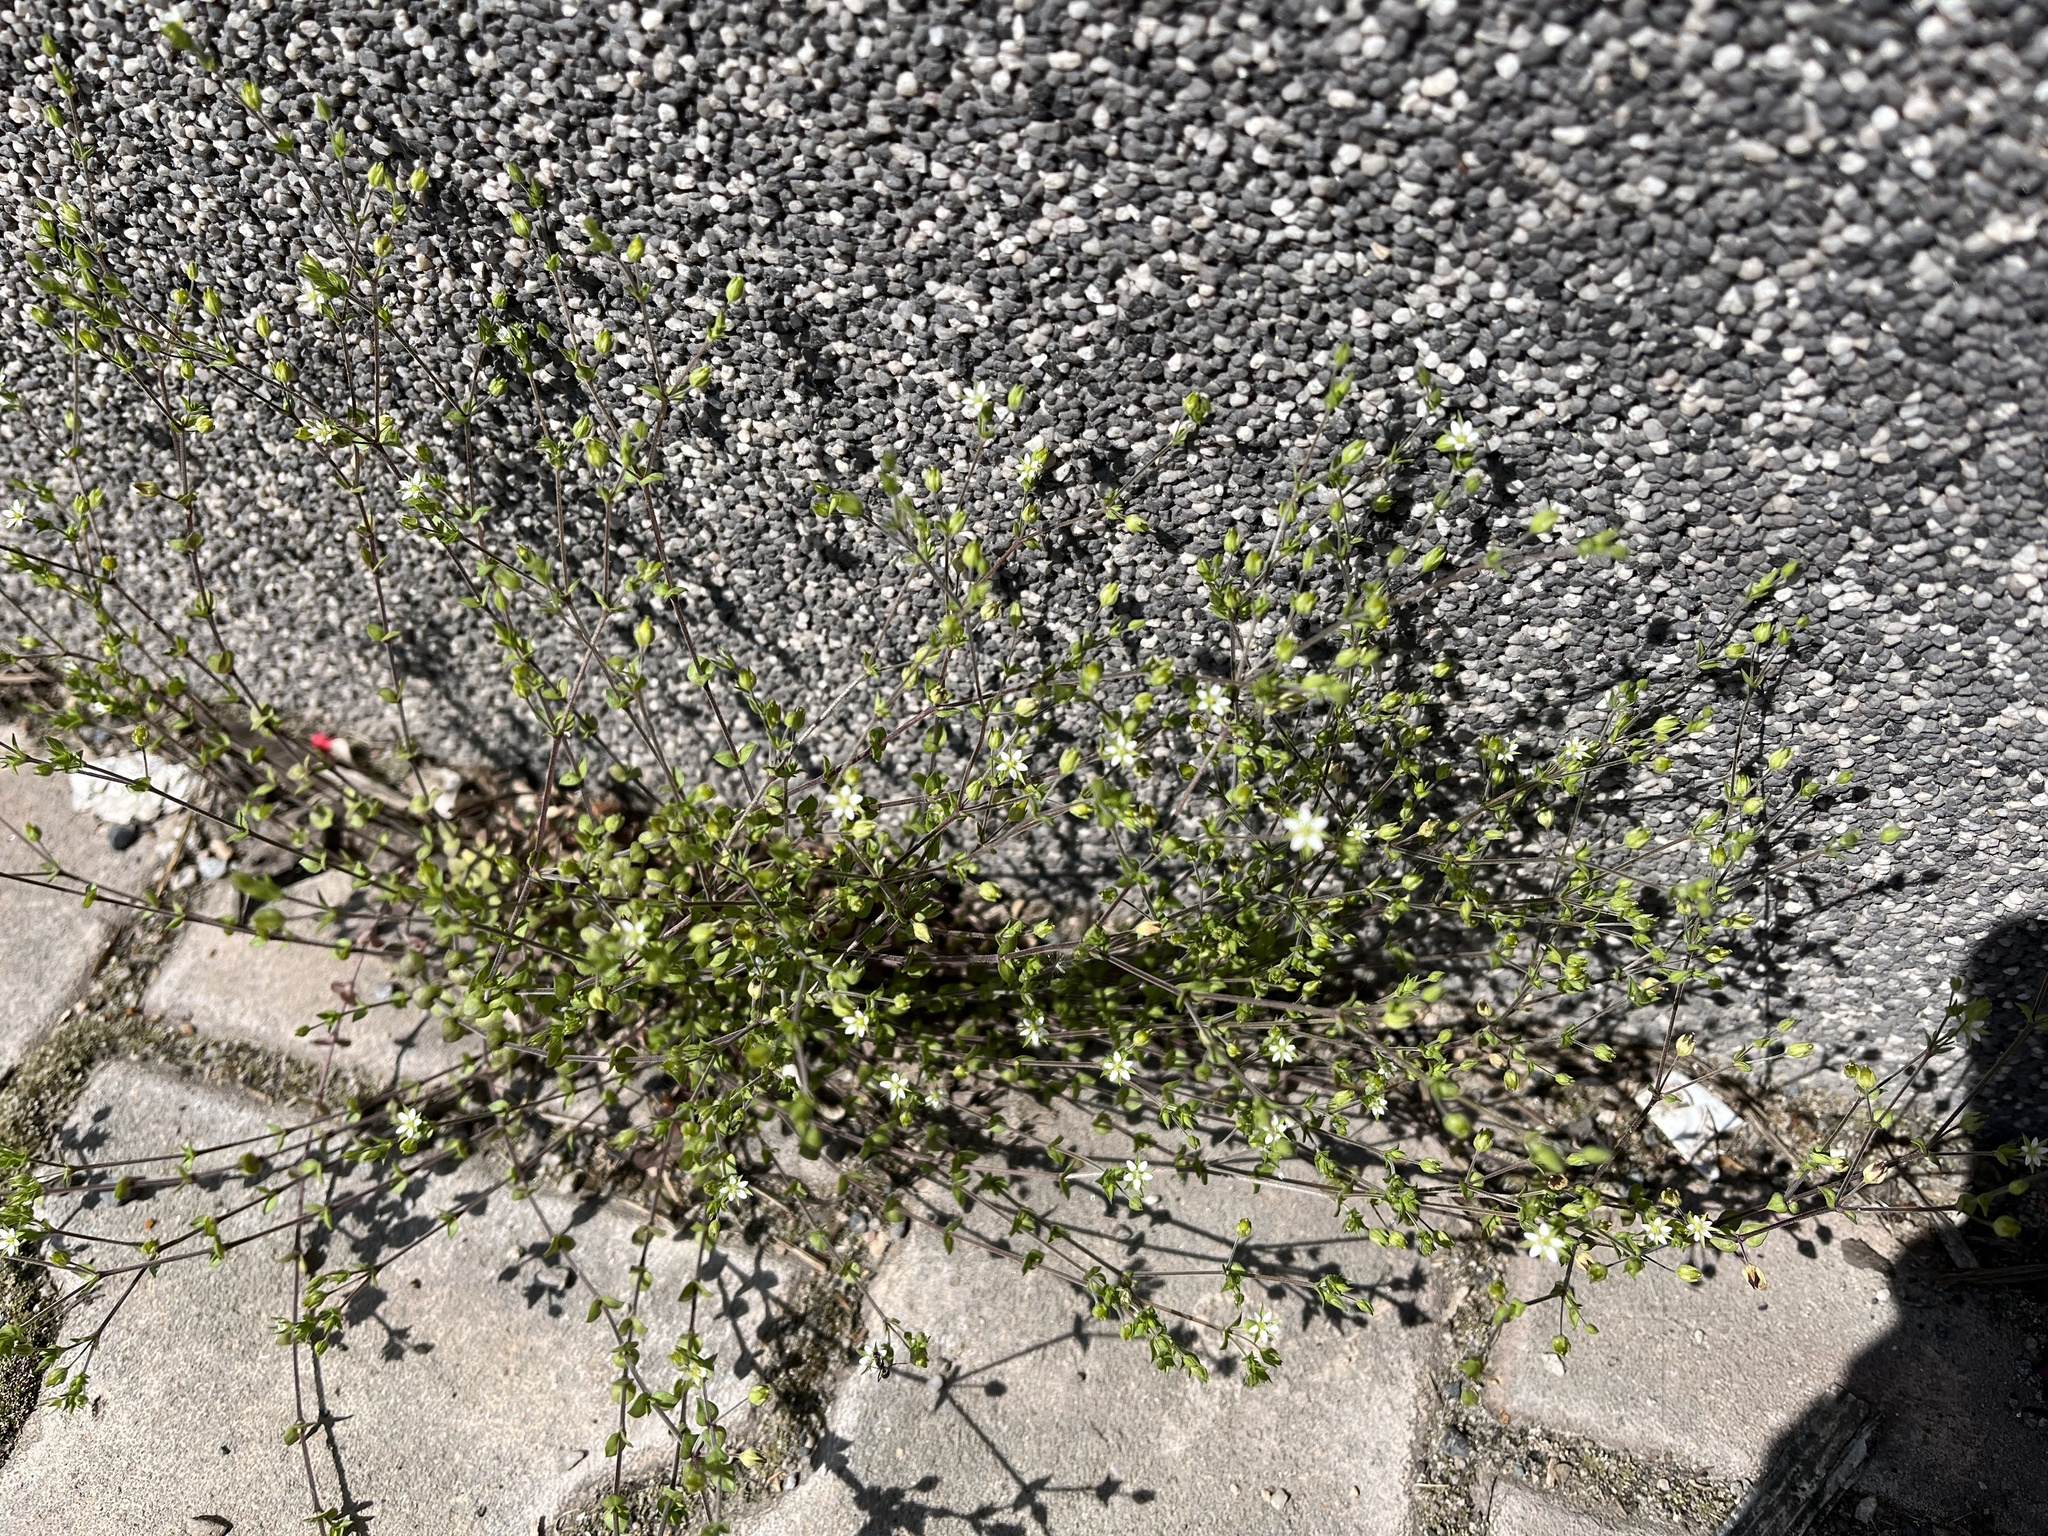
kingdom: Plantae
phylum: Tracheophyta
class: Magnoliopsida
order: Caryophyllales
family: Caryophyllaceae
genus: Arenaria
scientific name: Arenaria serpyllifolia
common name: Thyme-leaved sandwort
